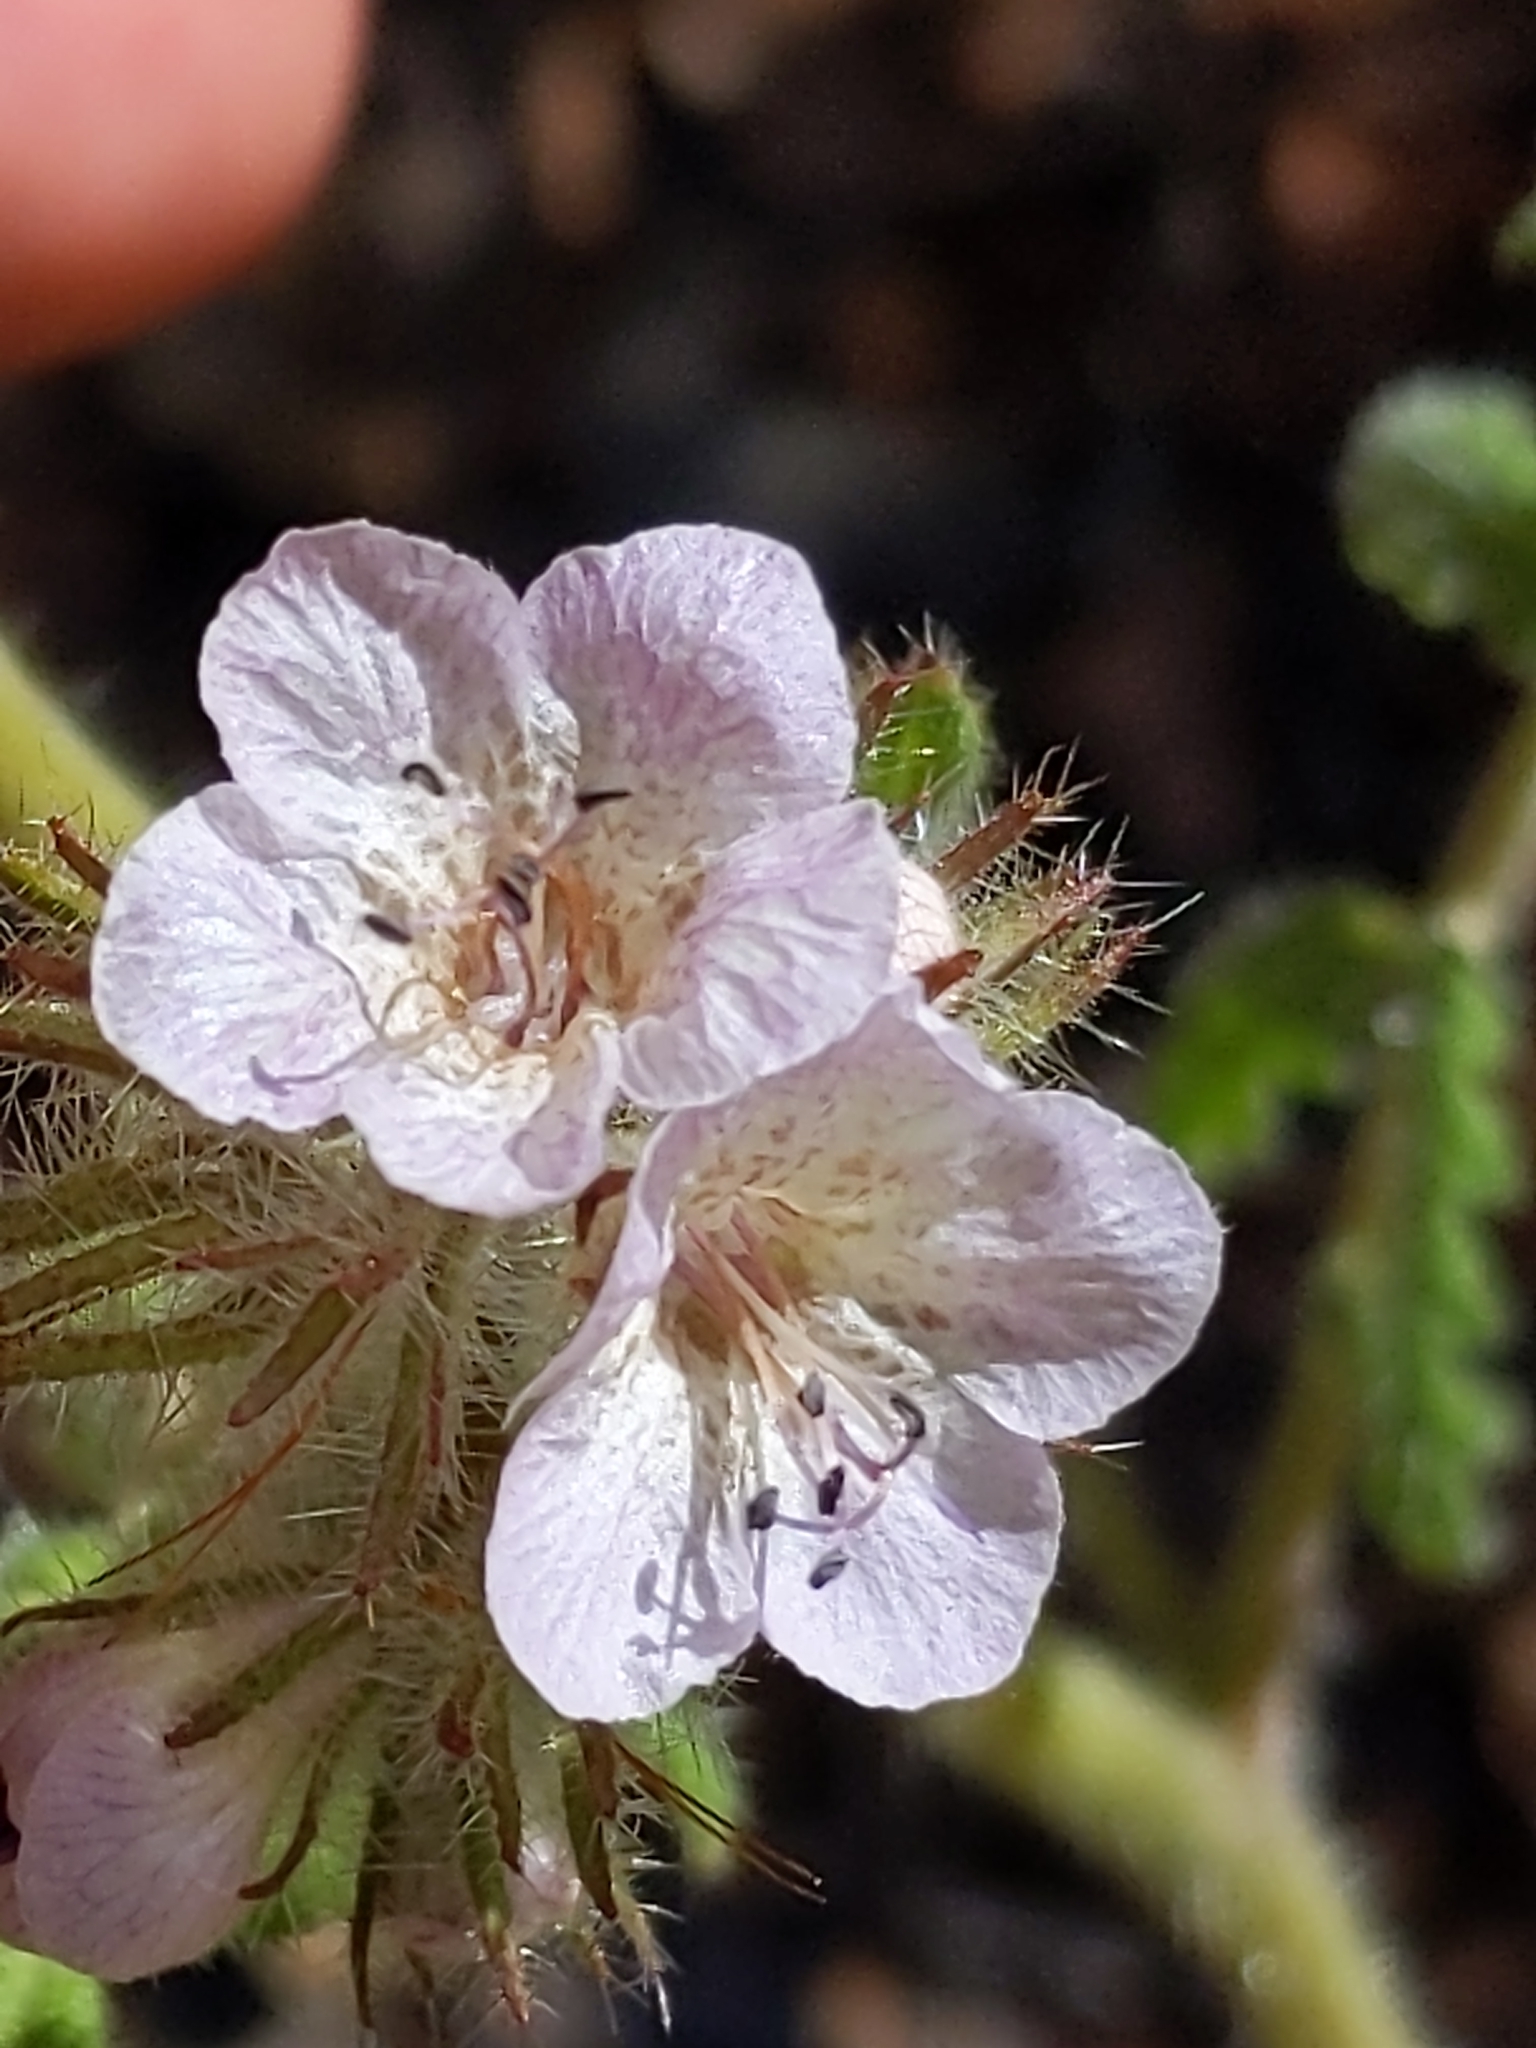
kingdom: Plantae
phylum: Tracheophyta
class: Magnoliopsida
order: Boraginales
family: Hydrophyllaceae
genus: Phacelia
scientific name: Phacelia cicutaria
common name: Caterpillar phacelia
